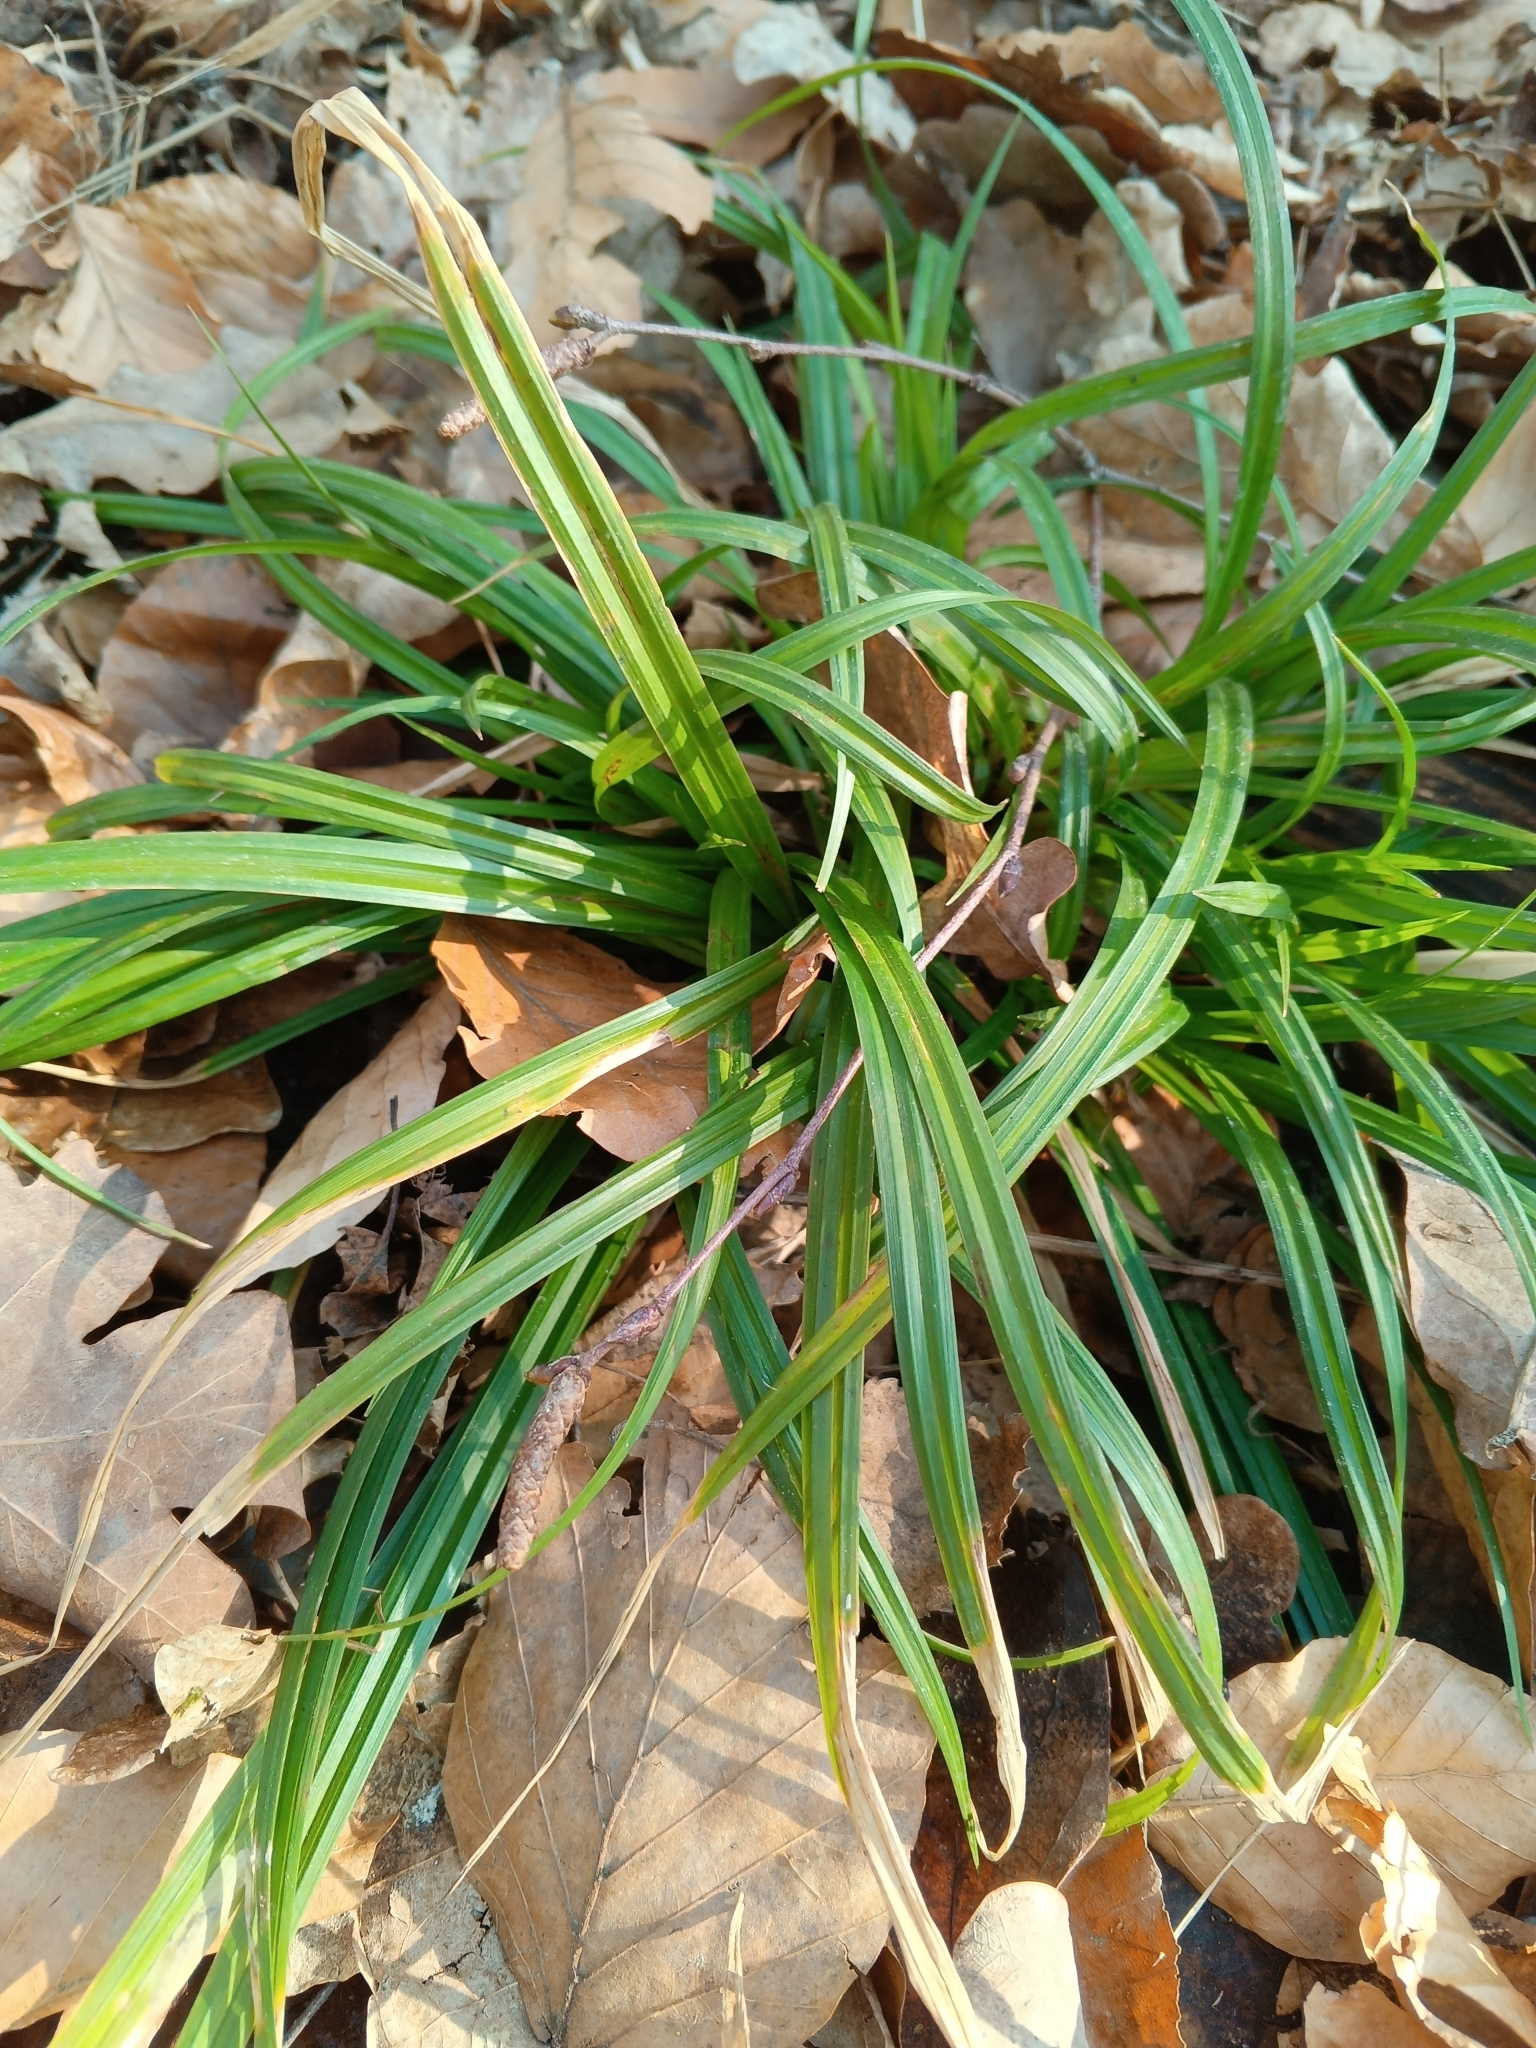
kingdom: Plantae
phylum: Tracheophyta
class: Liliopsida
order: Poales
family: Cyperaceae
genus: Carex
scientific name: Carex sylvatica
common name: Wood-sedge
